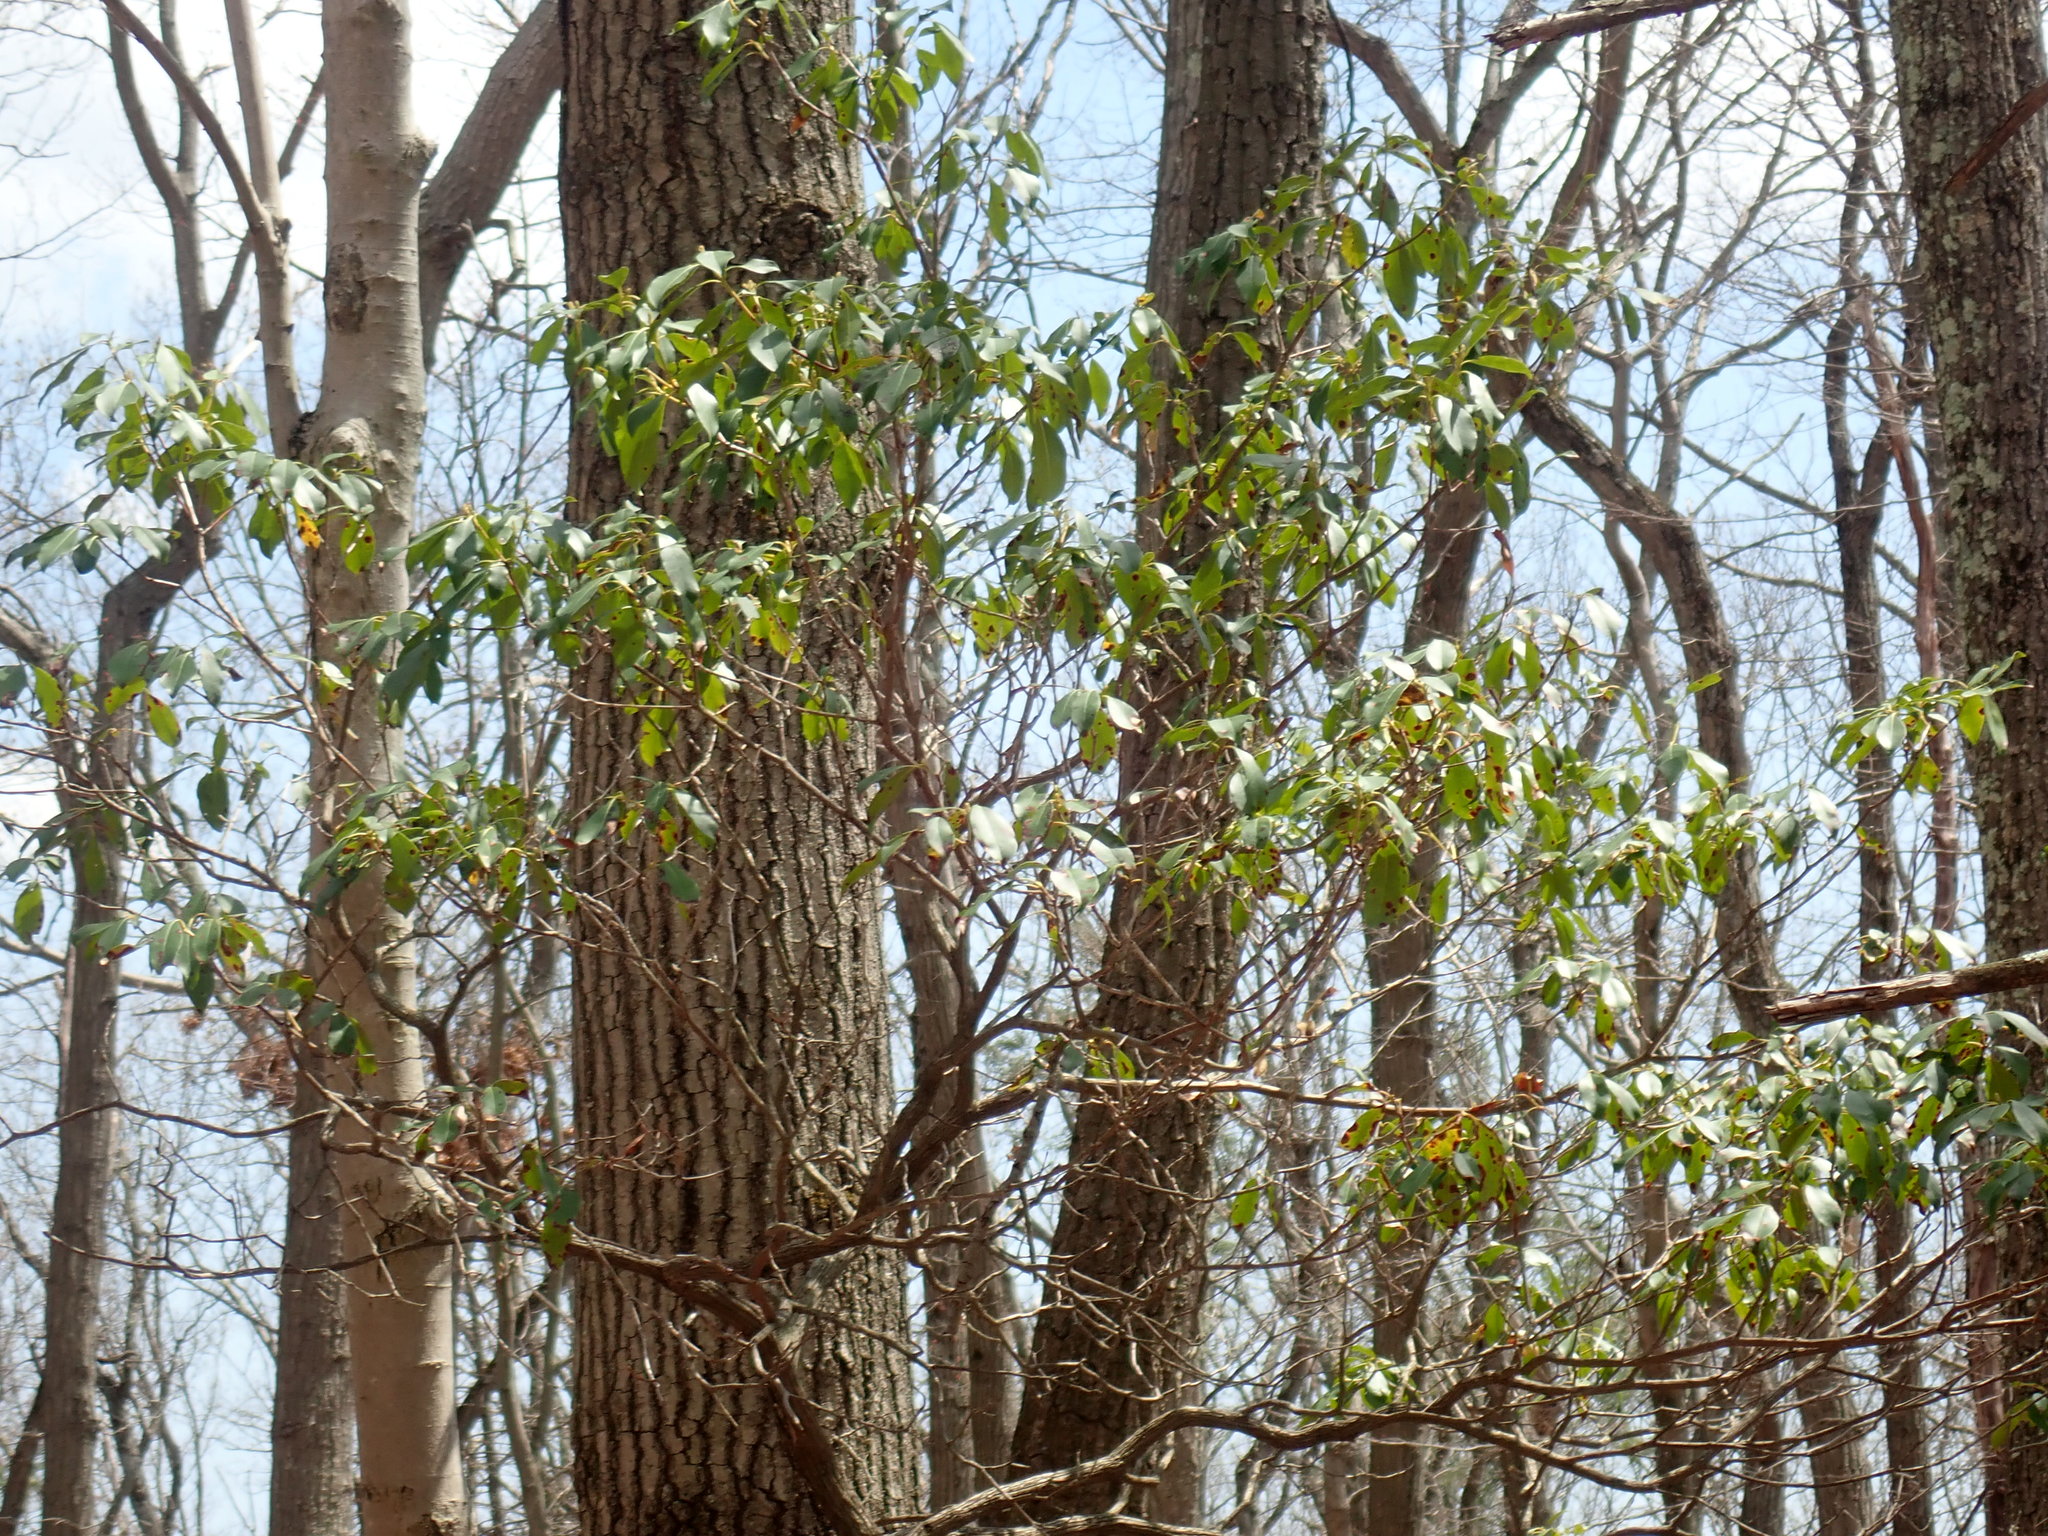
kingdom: Plantae
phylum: Tracheophyta
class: Magnoliopsida
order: Ericales
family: Ericaceae
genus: Kalmia
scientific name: Kalmia latifolia
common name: Mountain-laurel
